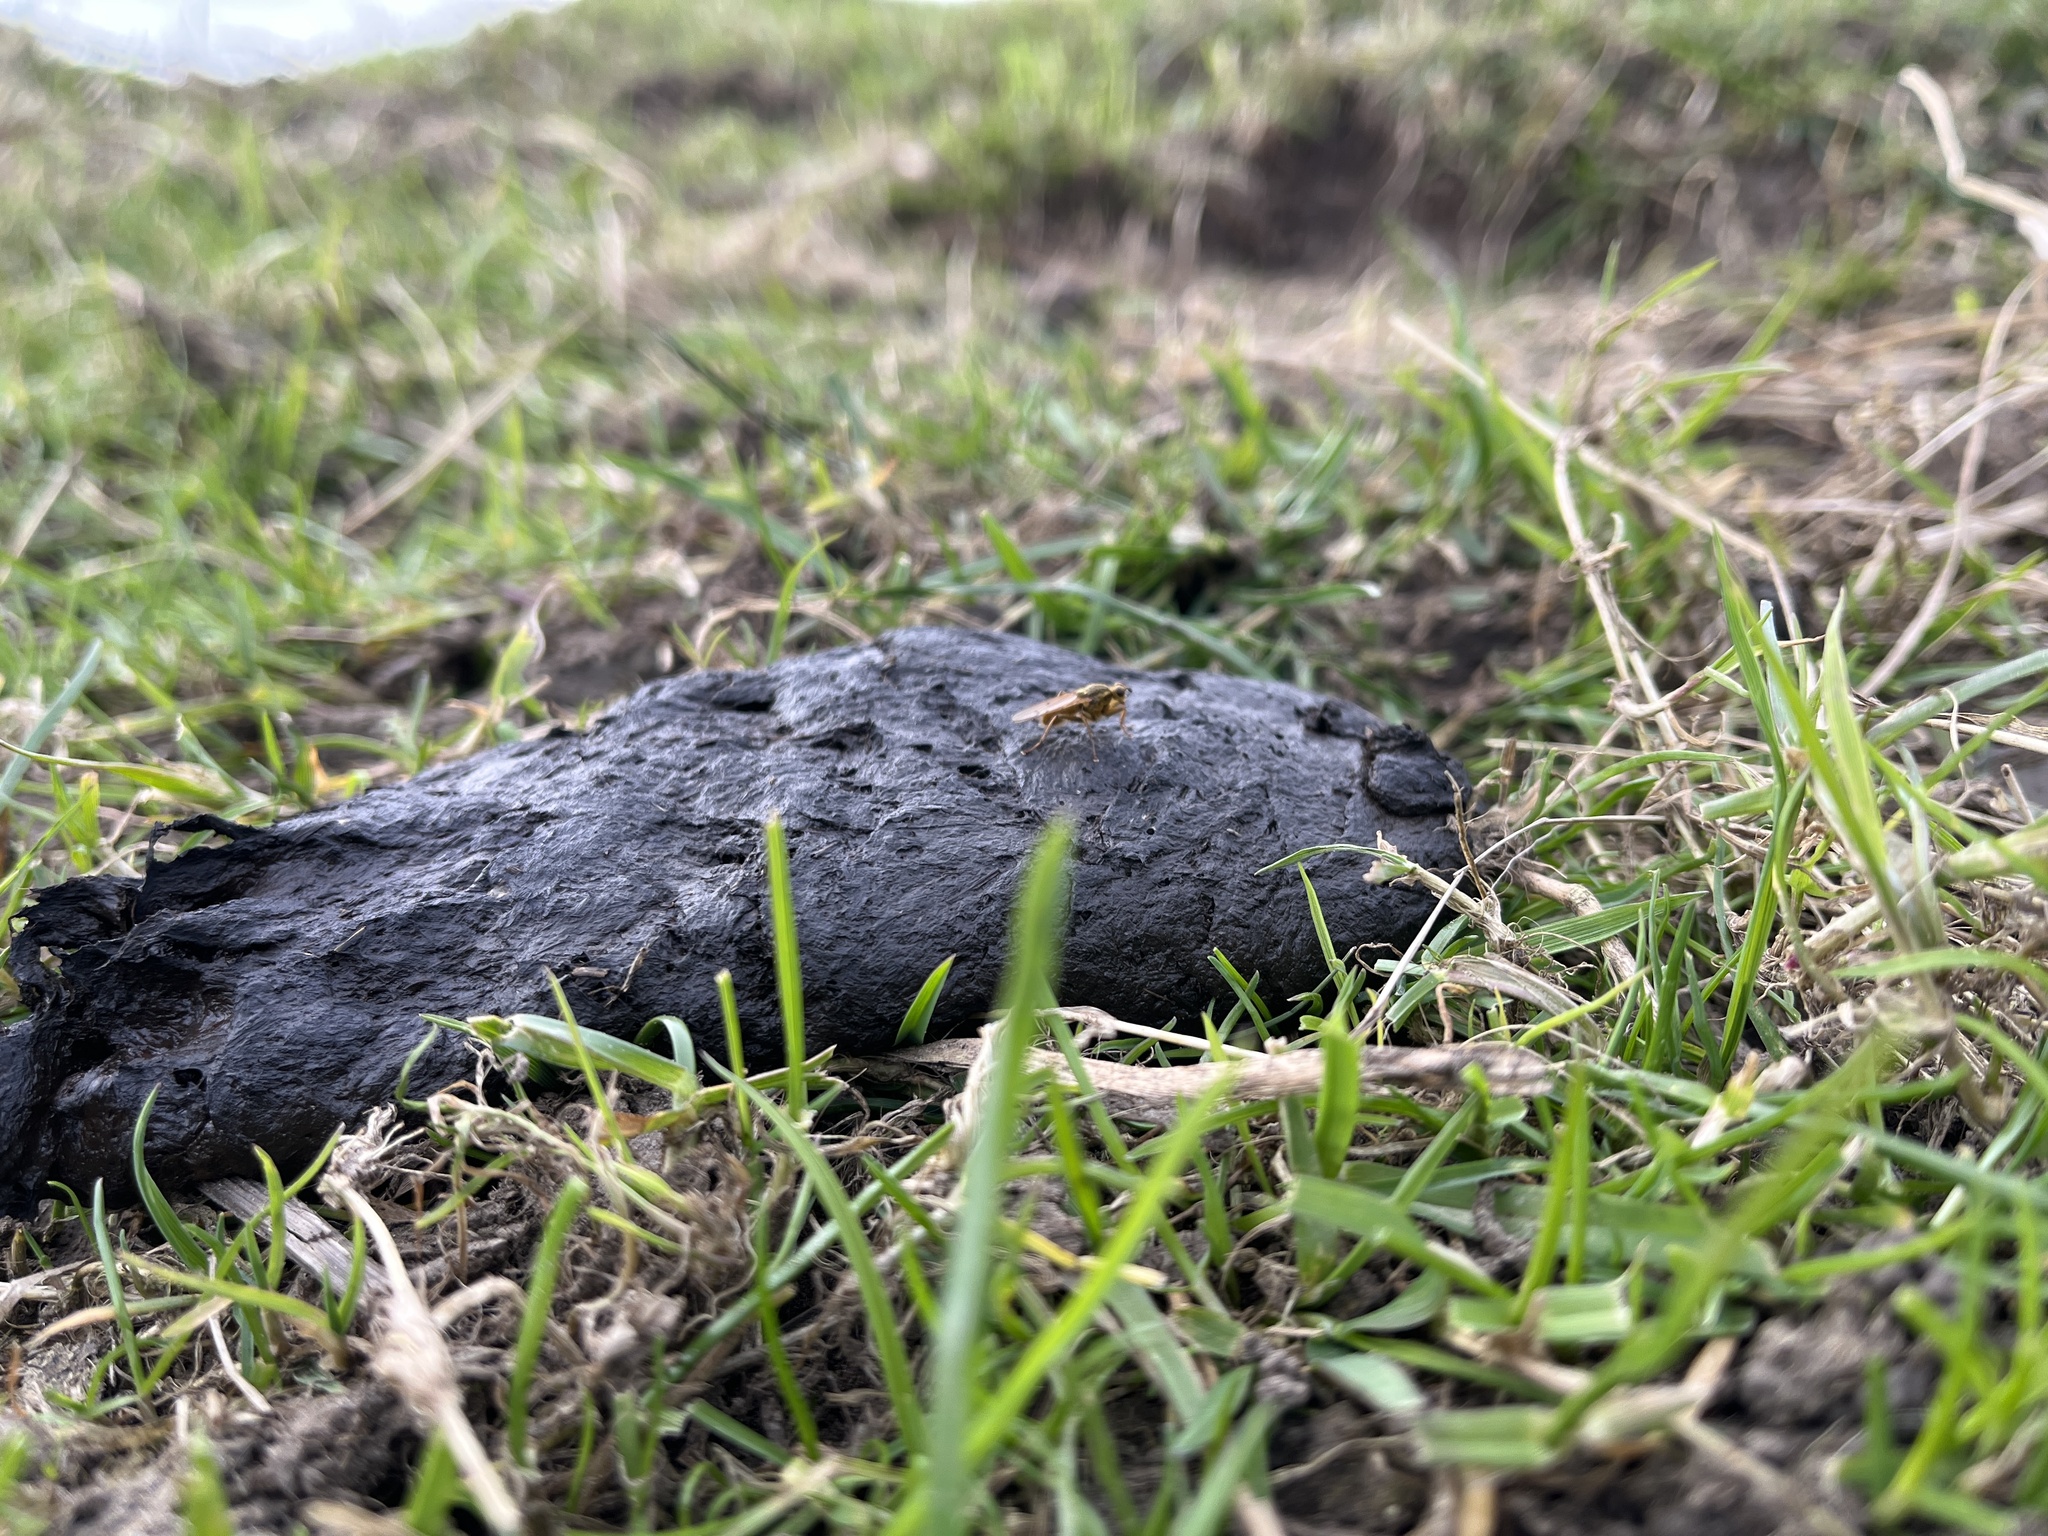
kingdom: Animalia
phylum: Arthropoda
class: Insecta
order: Diptera
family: Scathophagidae
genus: Scathophaga
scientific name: Scathophaga stercoraria
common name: Yellow dung fly
